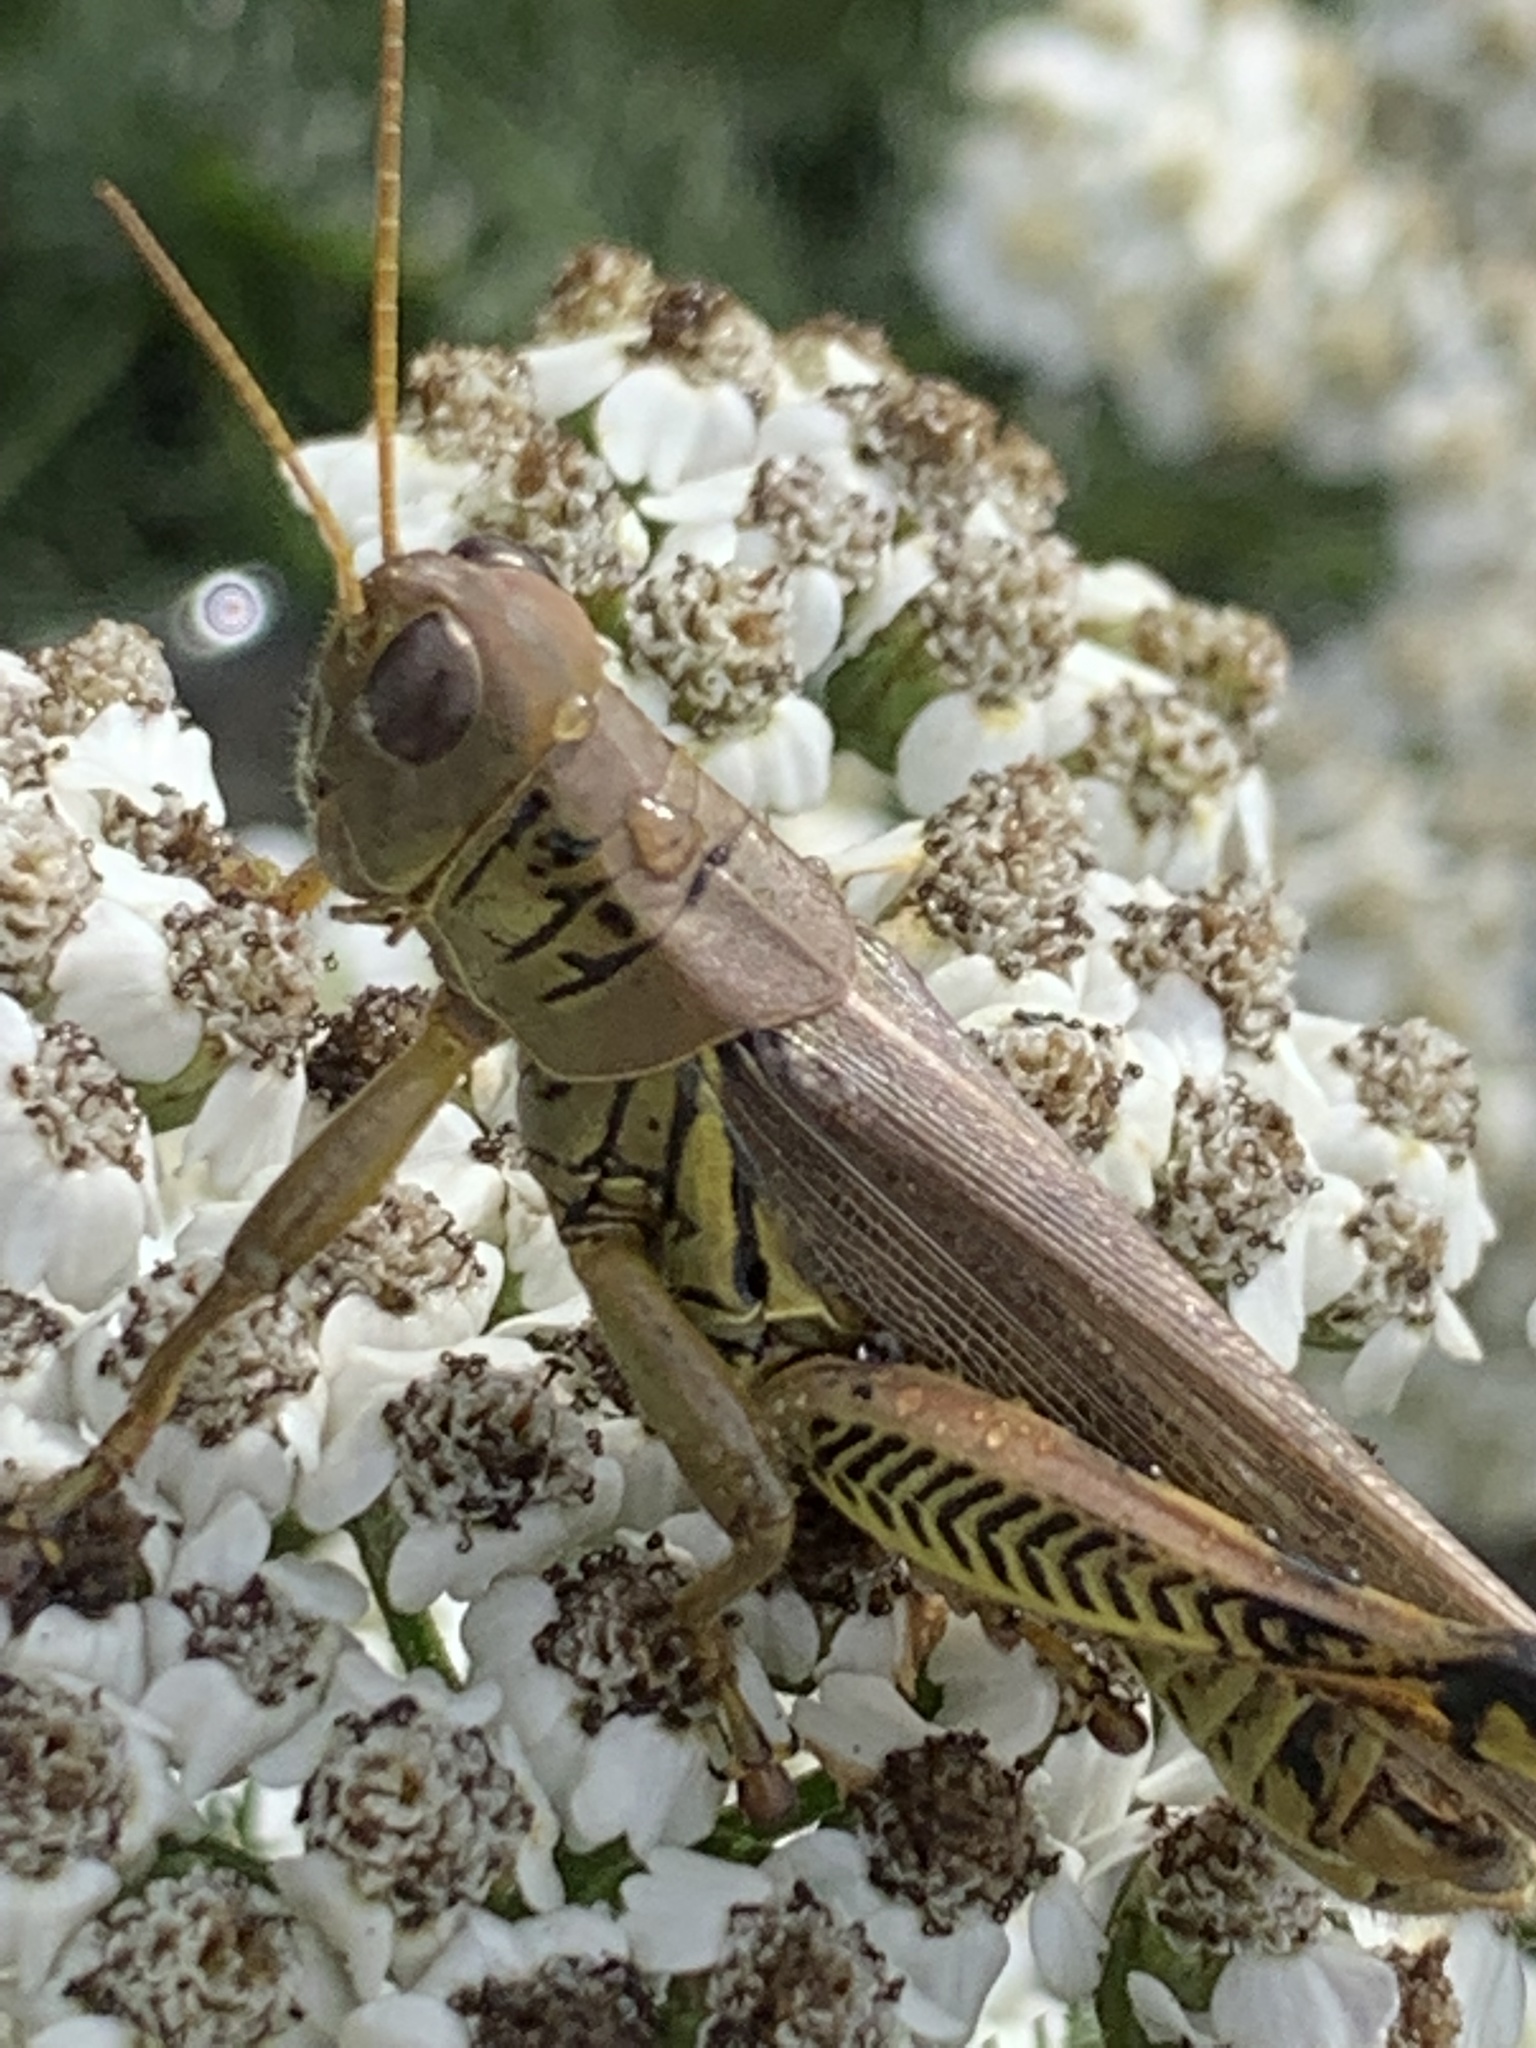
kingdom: Animalia
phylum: Arthropoda
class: Insecta
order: Orthoptera
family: Acrididae
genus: Melanoplus
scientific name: Melanoplus differentialis
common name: Differential grasshopper
